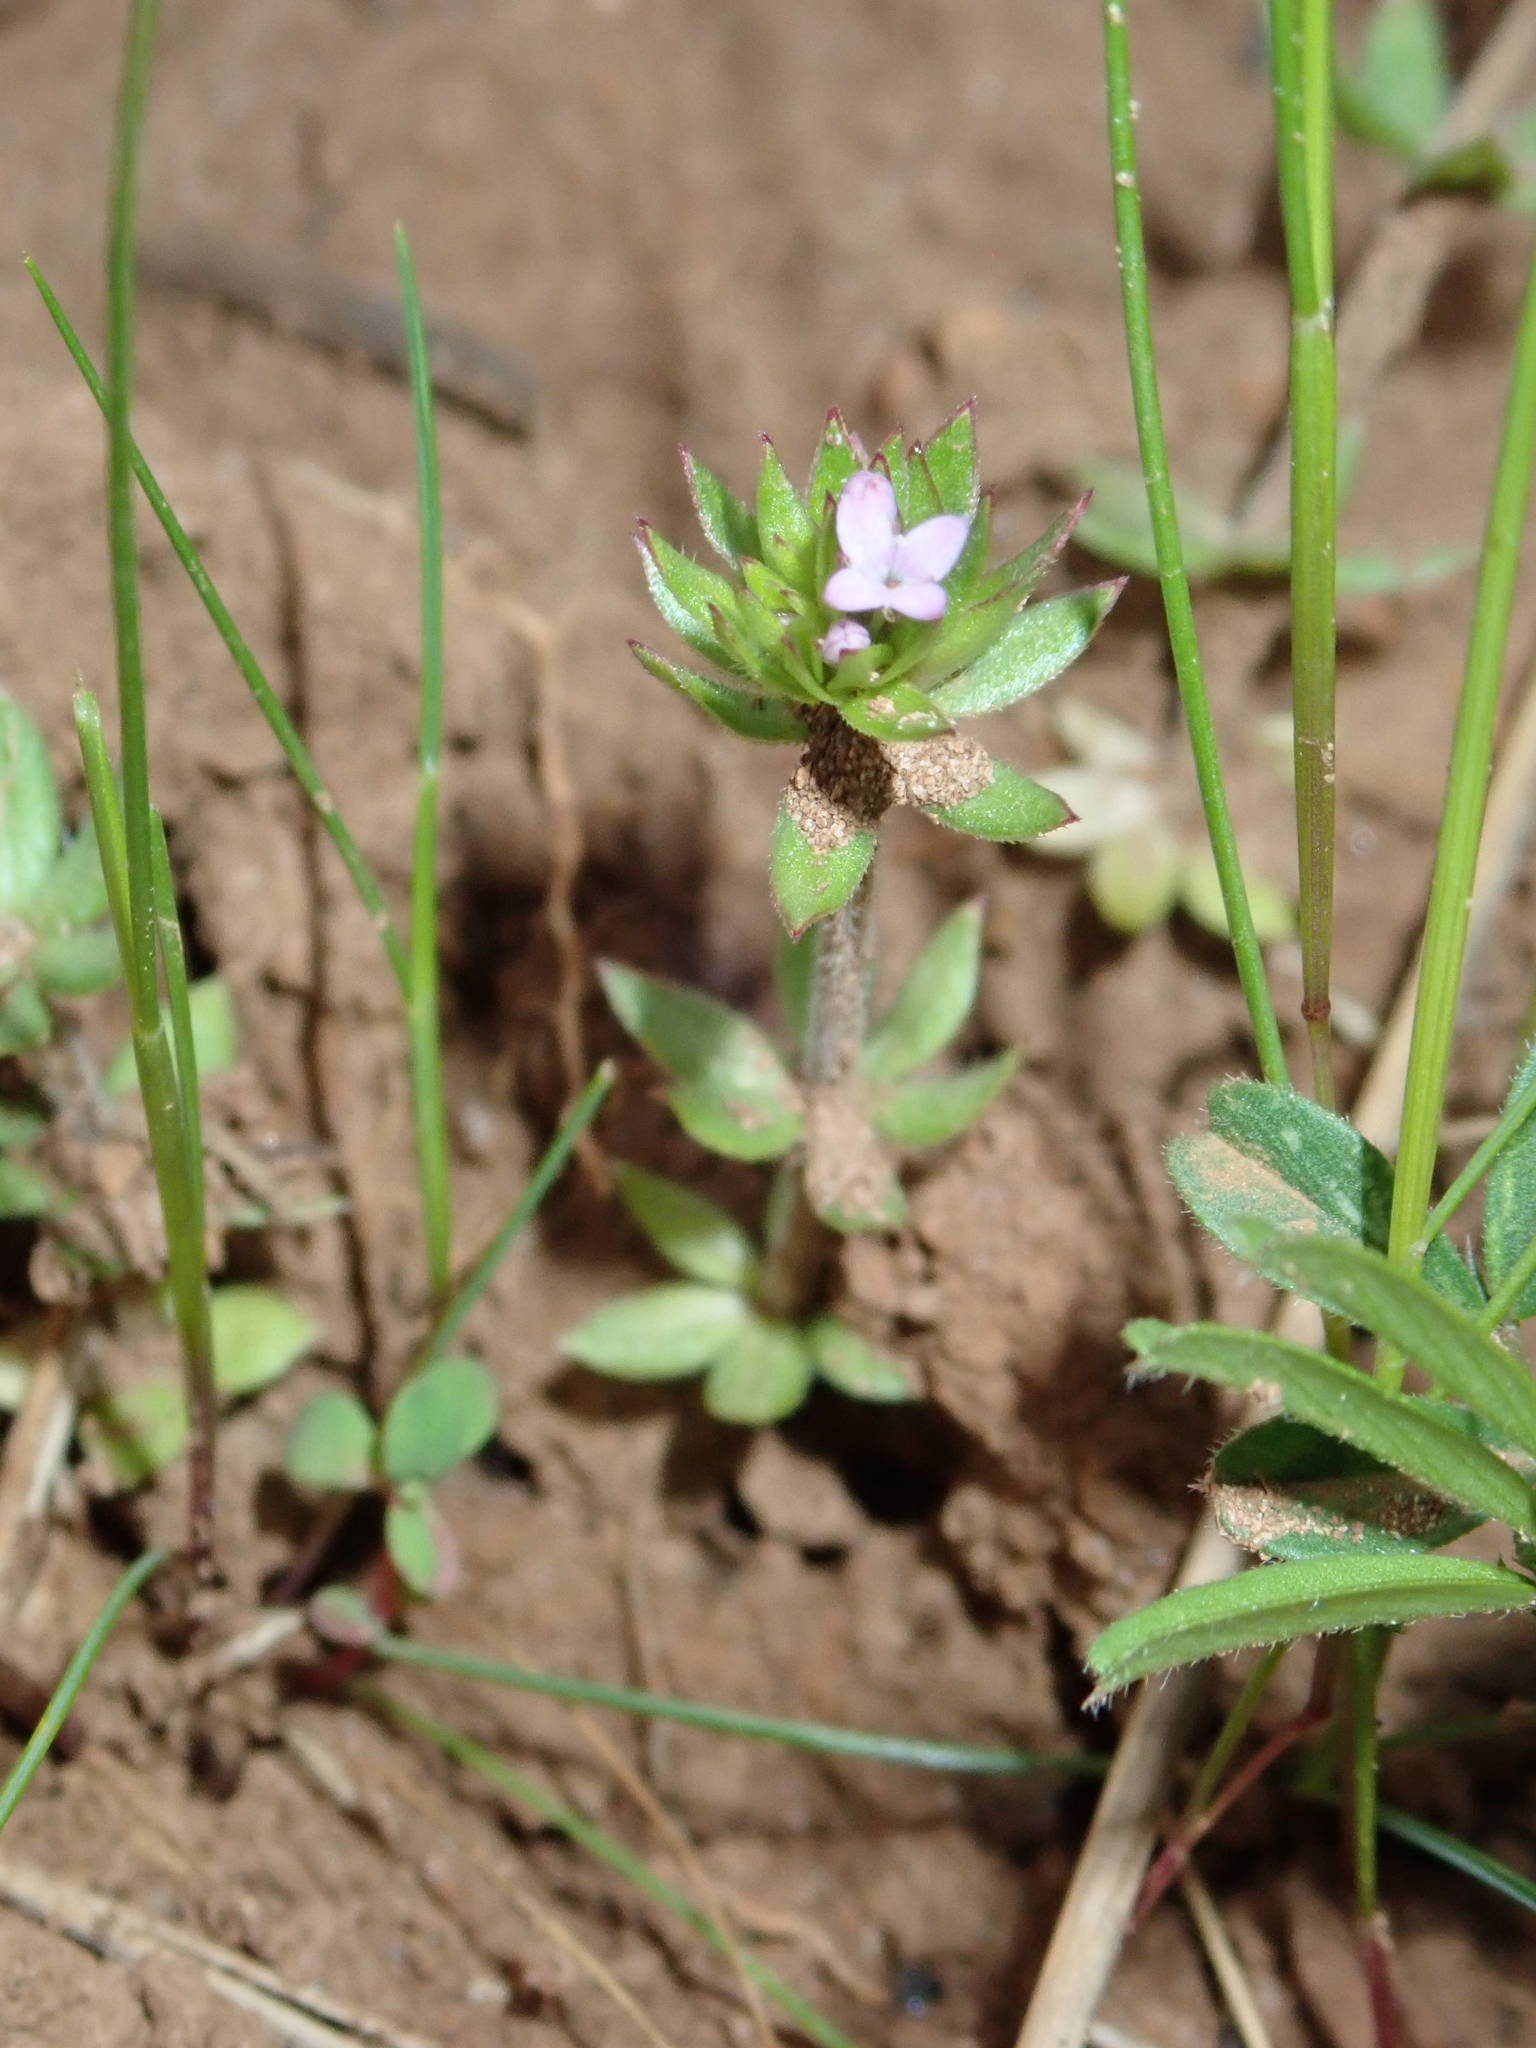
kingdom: Plantae
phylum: Tracheophyta
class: Magnoliopsida
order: Gentianales
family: Rubiaceae
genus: Sherardia
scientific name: Sherardia arvensis
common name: Field madder
